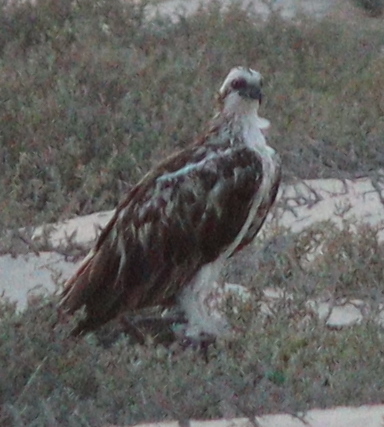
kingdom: Animalia
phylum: Chordata
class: Aves
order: Accipitriformes
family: Pandionidae
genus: Pandion
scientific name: Pandion haliaetus
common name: Osprey
